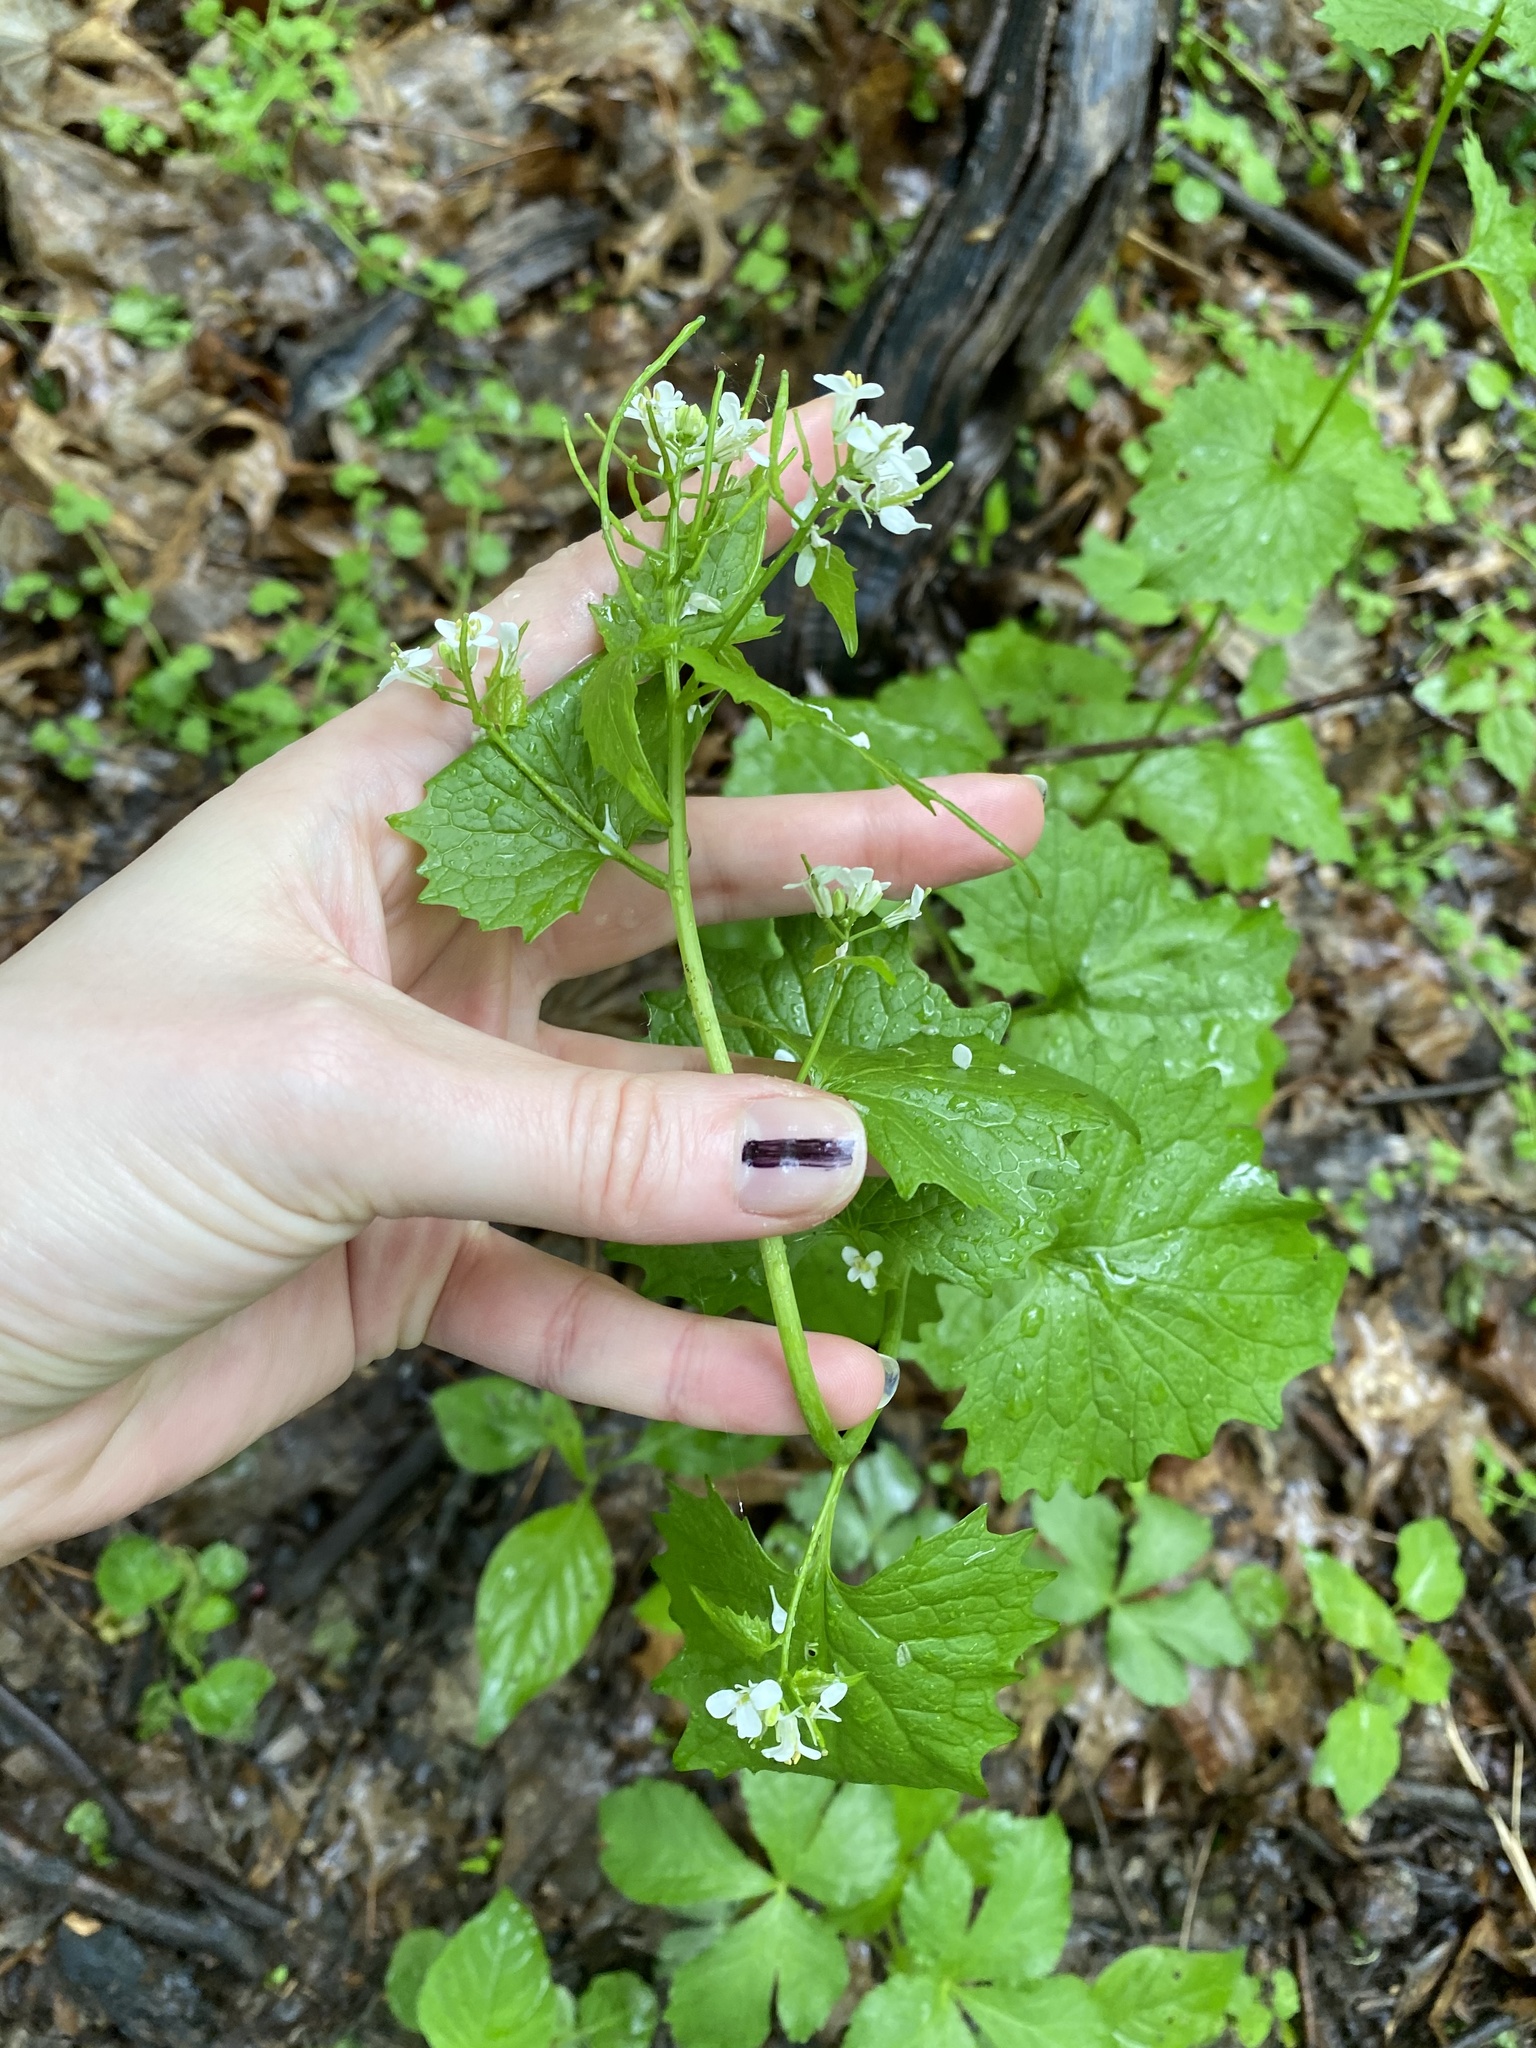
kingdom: Plantae
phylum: Tracheophyta
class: Magnoliopsida
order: Brassicales
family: Brassicaceae
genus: Alliaria
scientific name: Alliaria petiolata
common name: Garlic mustard
